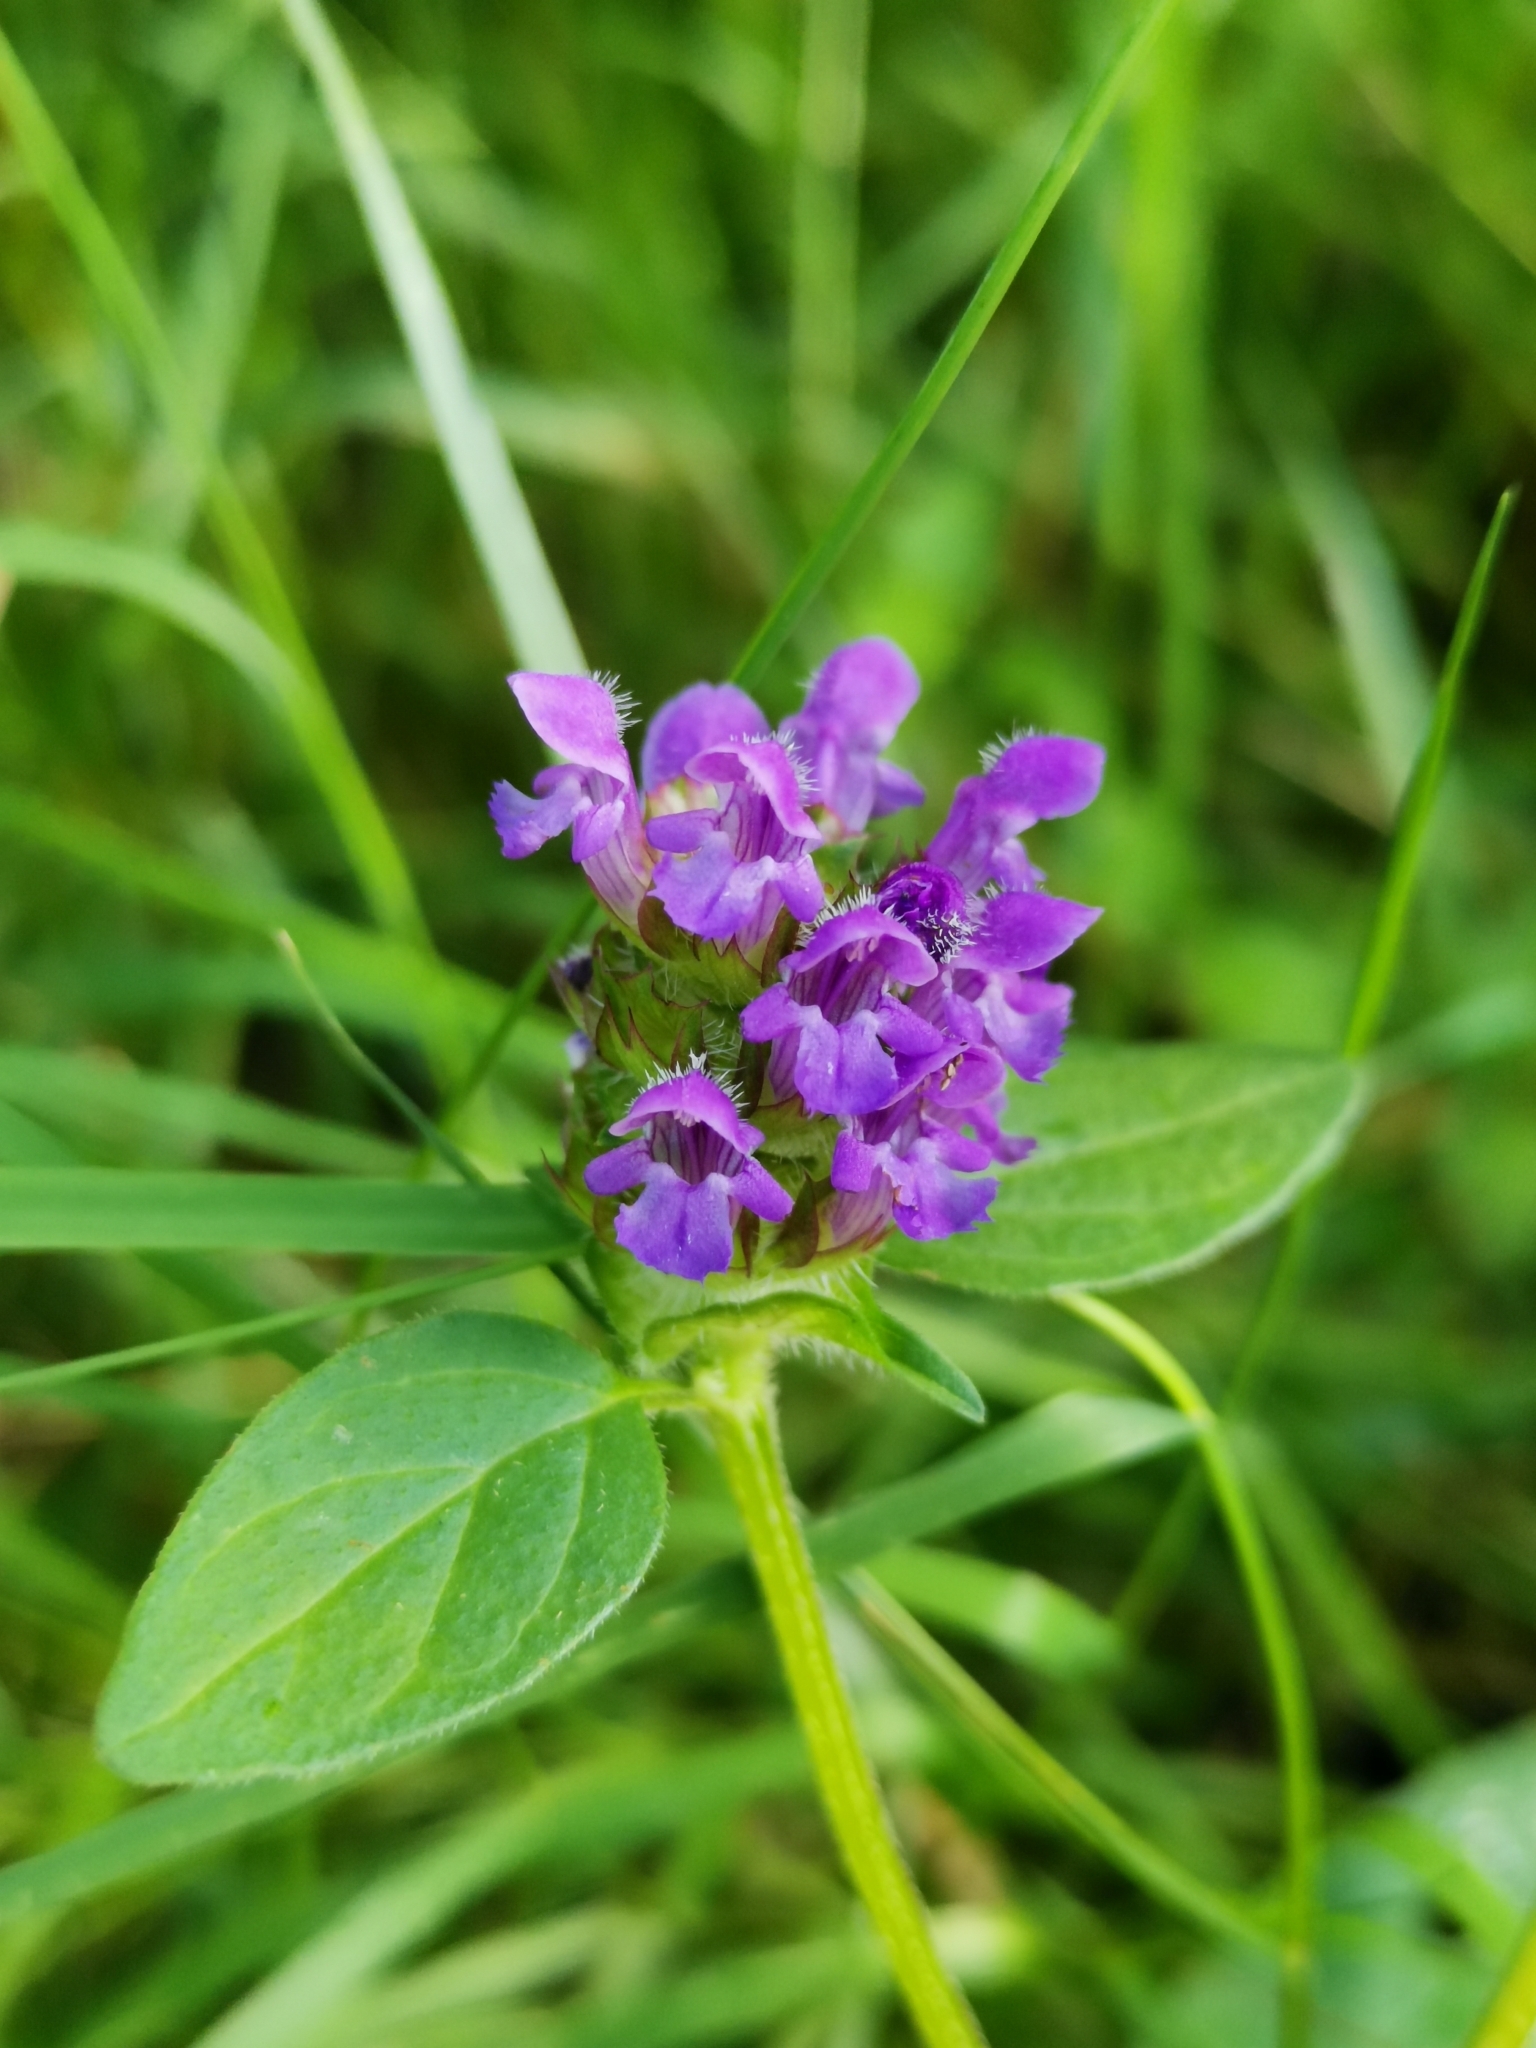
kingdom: Plantae
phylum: Tracheophyta
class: Magnoliopsida
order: Lamiales
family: Lamiaceae
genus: Prunella
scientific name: Prunella vulgaris
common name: Heal-all
